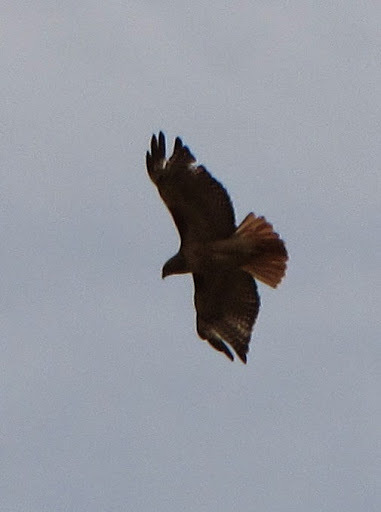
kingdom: Animalia
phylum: Chordata
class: Aves
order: Accipitriformes
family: Accipitridae
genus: Buteo
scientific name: Buteo jamaicensis
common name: Red-tailed hawk
